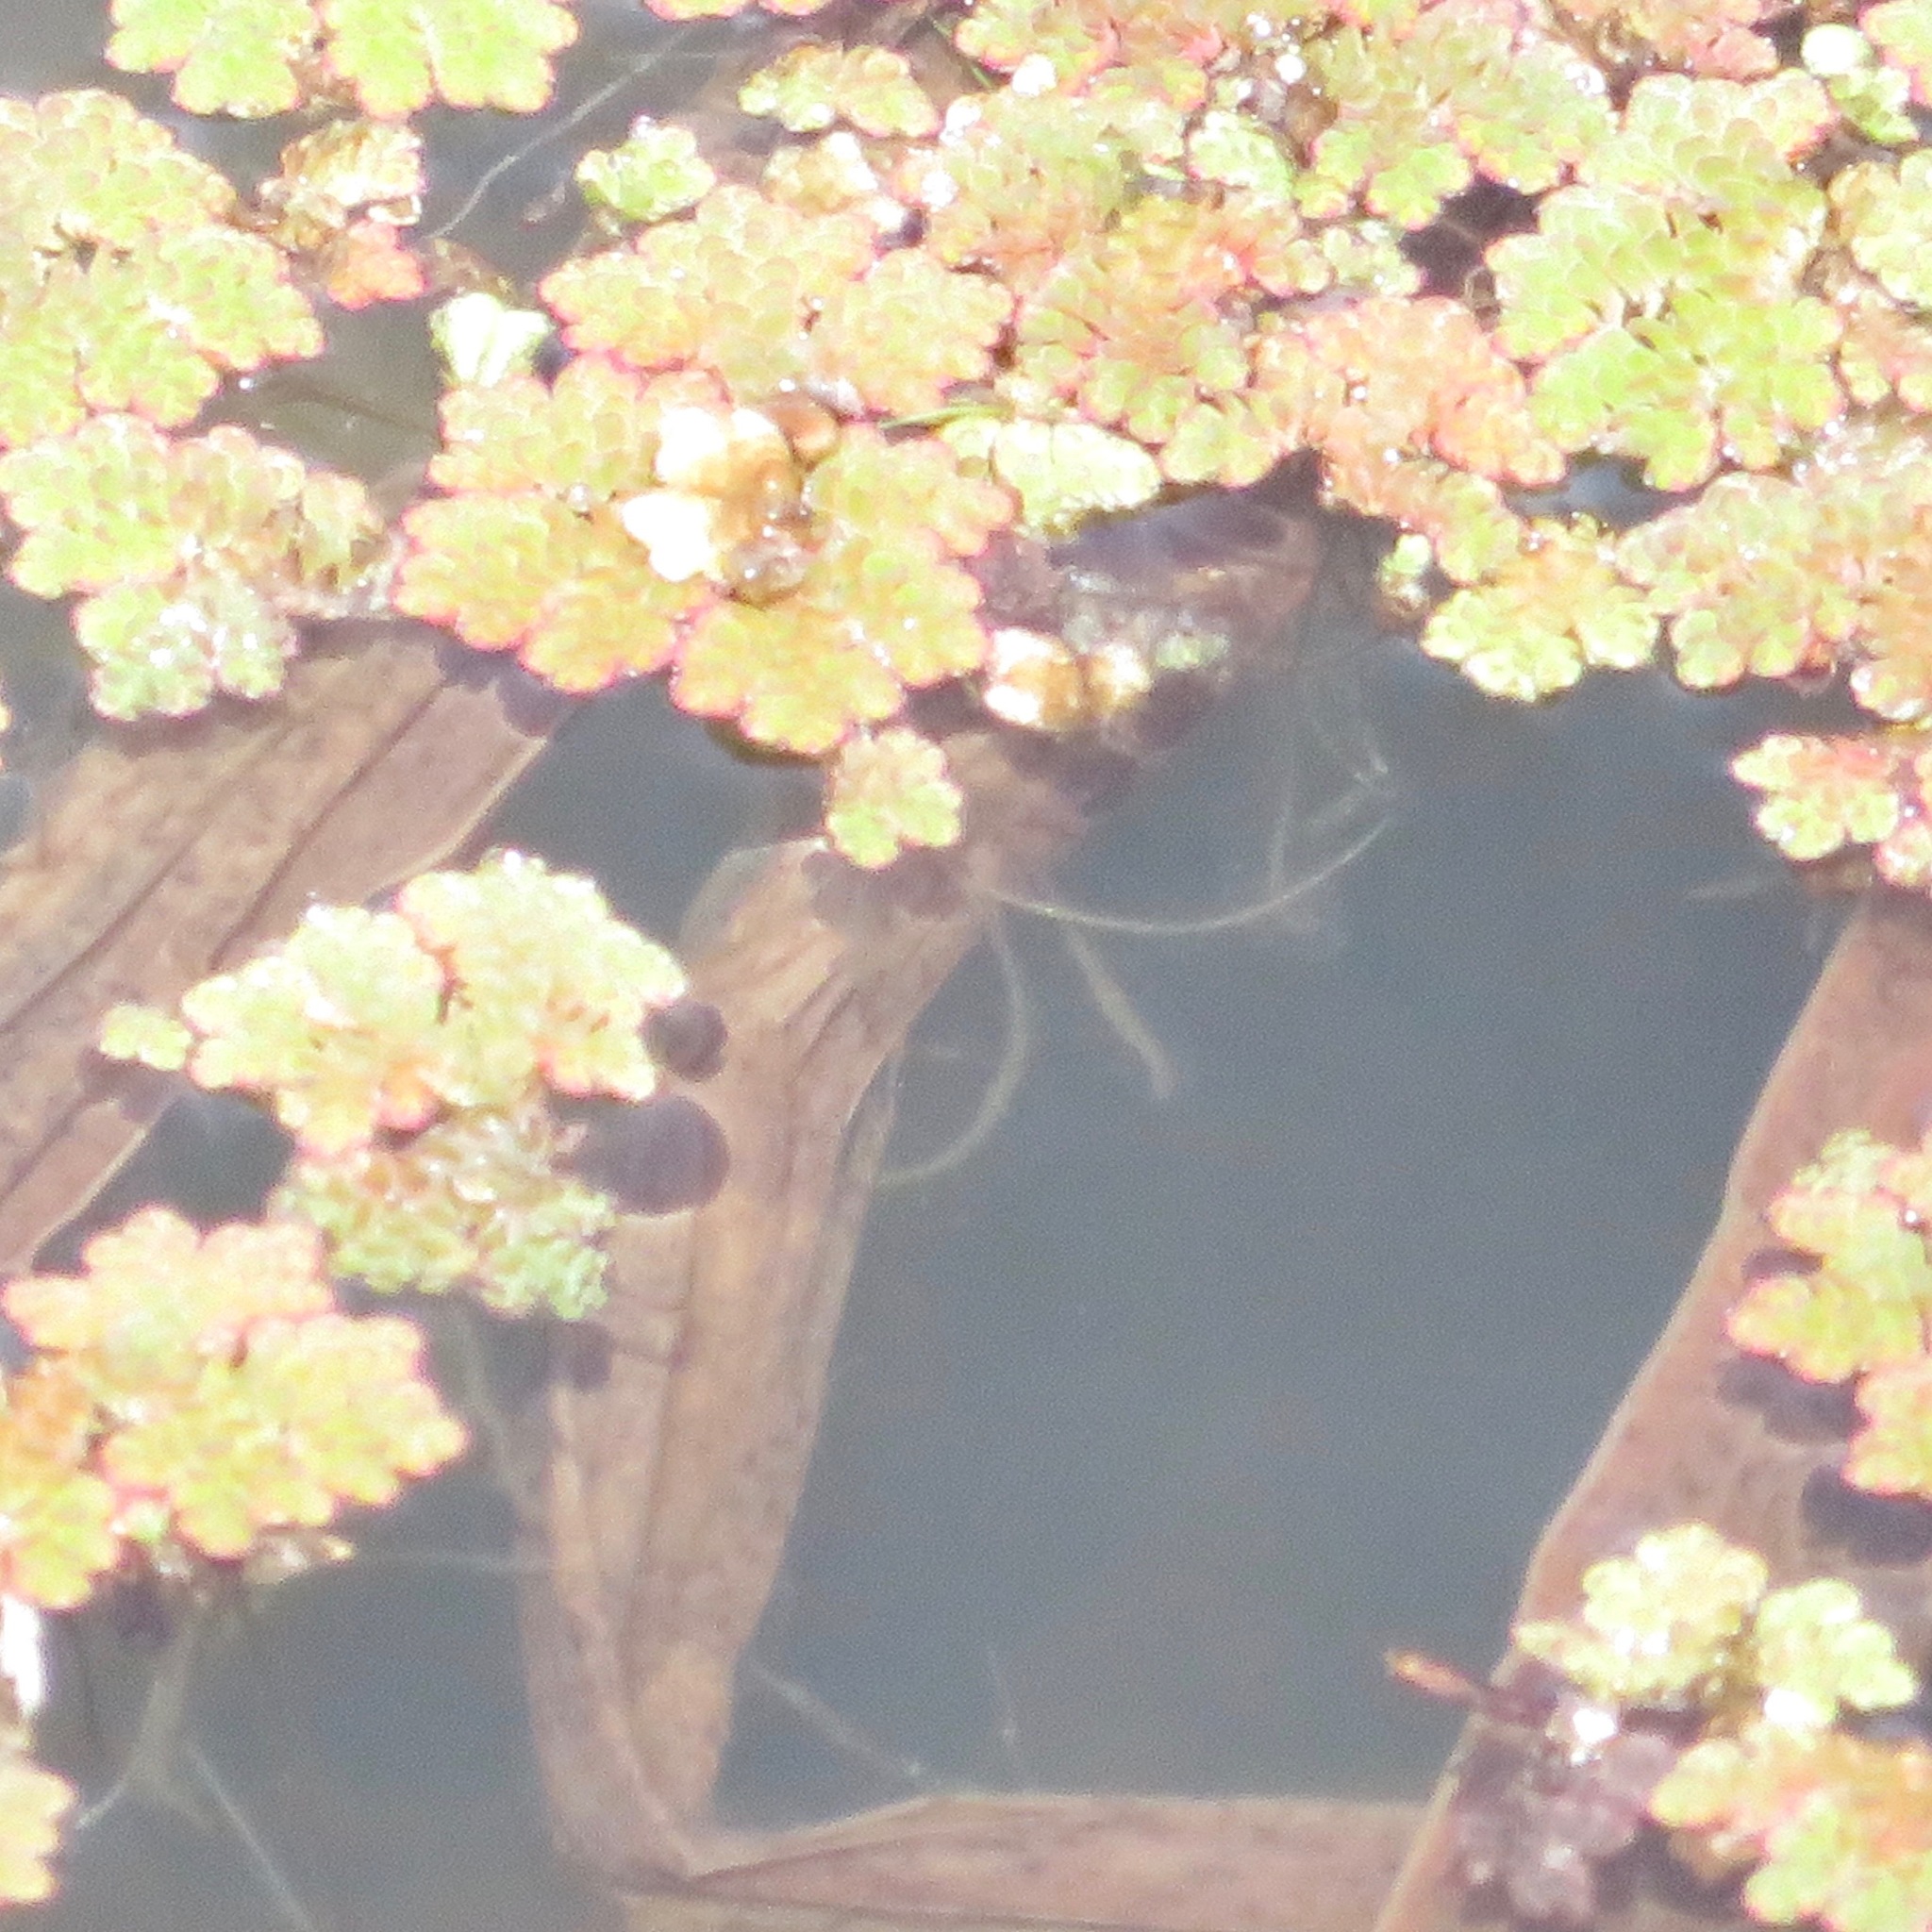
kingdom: Plantae
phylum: Tracheophyta
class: Polypodiopsida
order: Salviniales
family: Salviniaceae
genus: Azolla
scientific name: Azolla filiculoides
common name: Water fern
